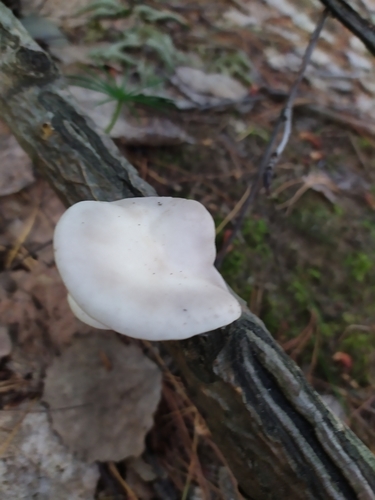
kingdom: Fungi
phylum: Basidiomycota
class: Agaricomycetes
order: Agaricales
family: Pleurotaceae
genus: Pleurotus
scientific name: Pleurotus pulmonarius
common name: Pale oyster
